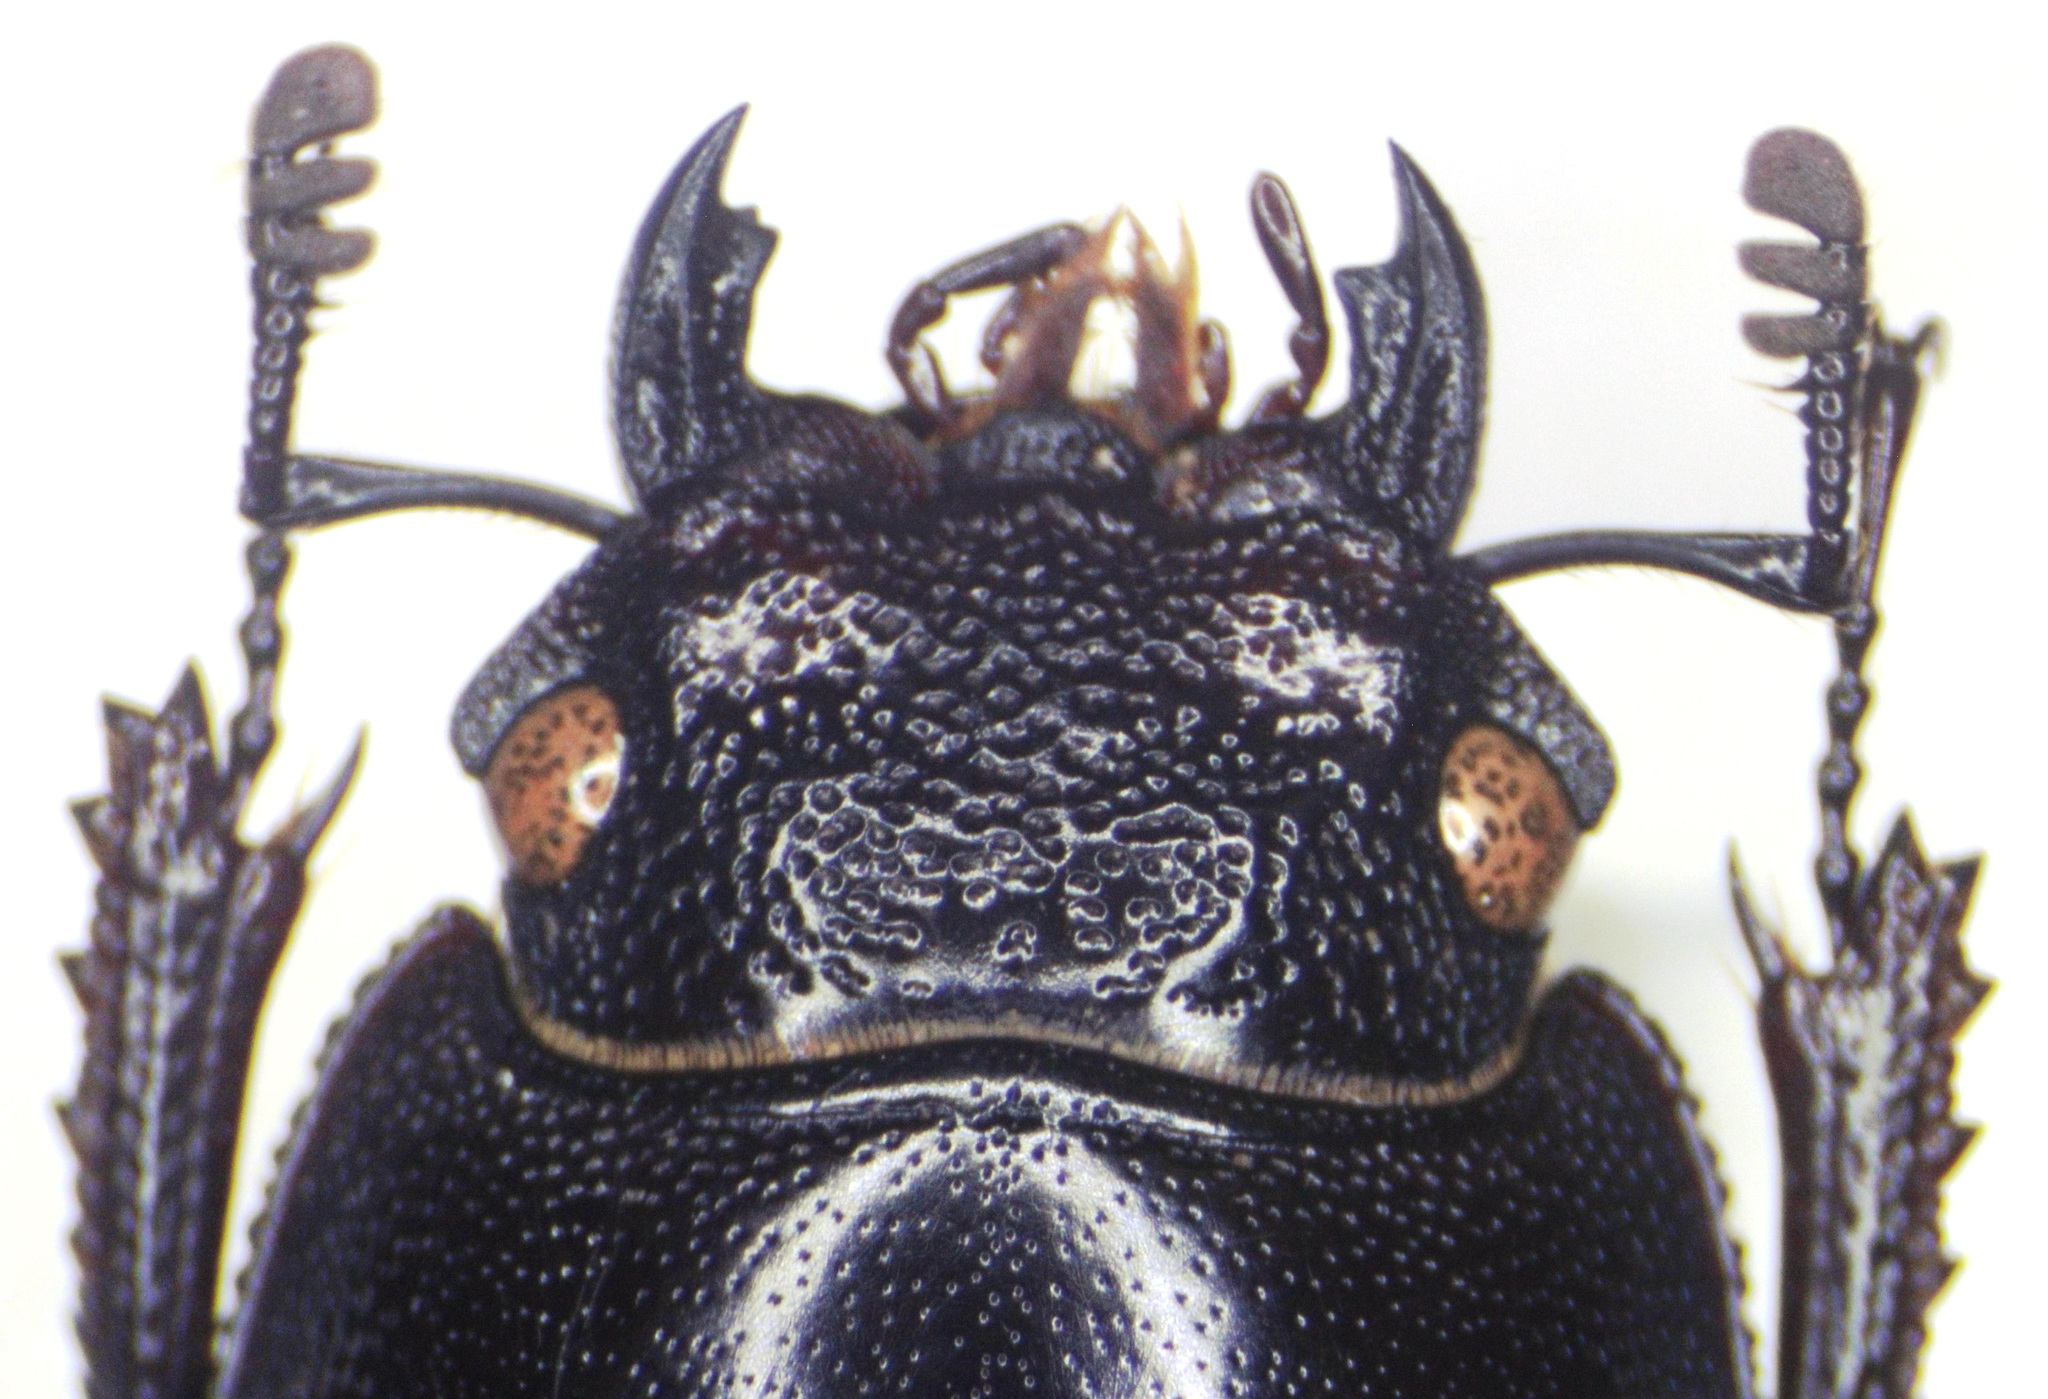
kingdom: Animalia
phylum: Arthropoda
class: Insecta
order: Coleoptera
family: Lucanidae
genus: Rhaetulus
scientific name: Rhaetulus recticornis
